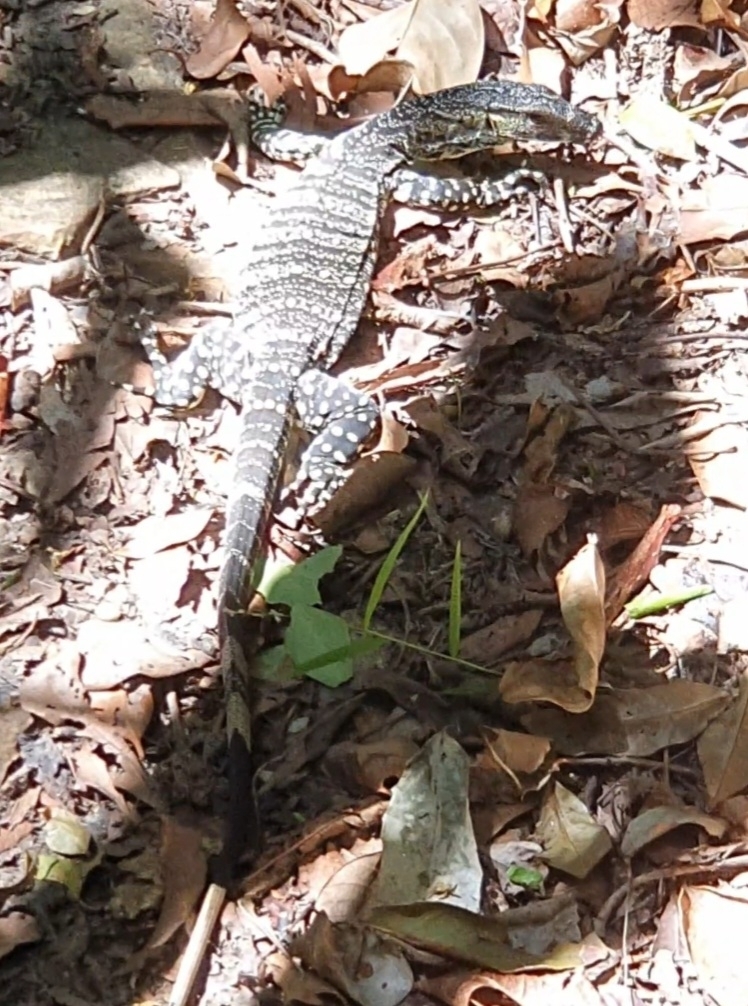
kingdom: Animalia
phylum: Chordata
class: Squamata
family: Varanidae
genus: Varanus
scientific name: Varanus varius
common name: Lace monitor
